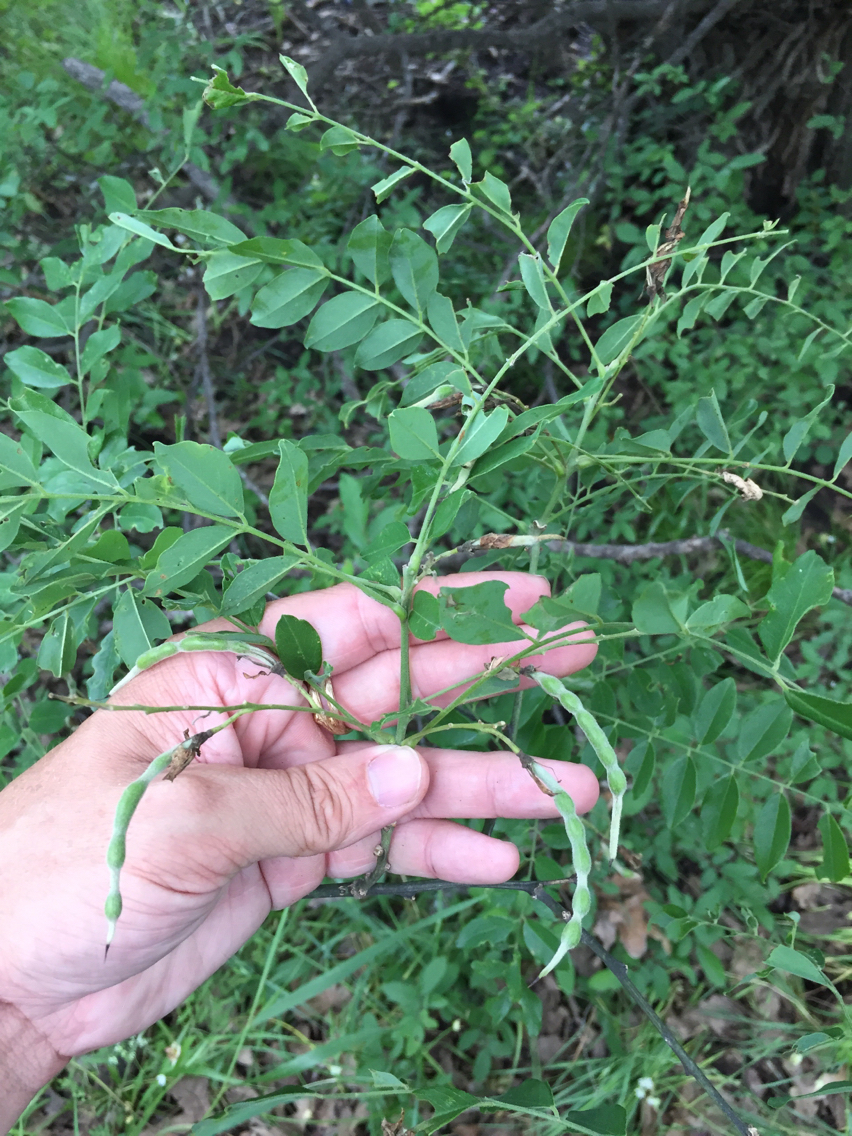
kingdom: Plantae
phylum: Tracheophyta
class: Magnoliopsida
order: Fabales
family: Fabaceae
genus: Styphnolobium
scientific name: Styphnolobium affine
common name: Texas sophora
